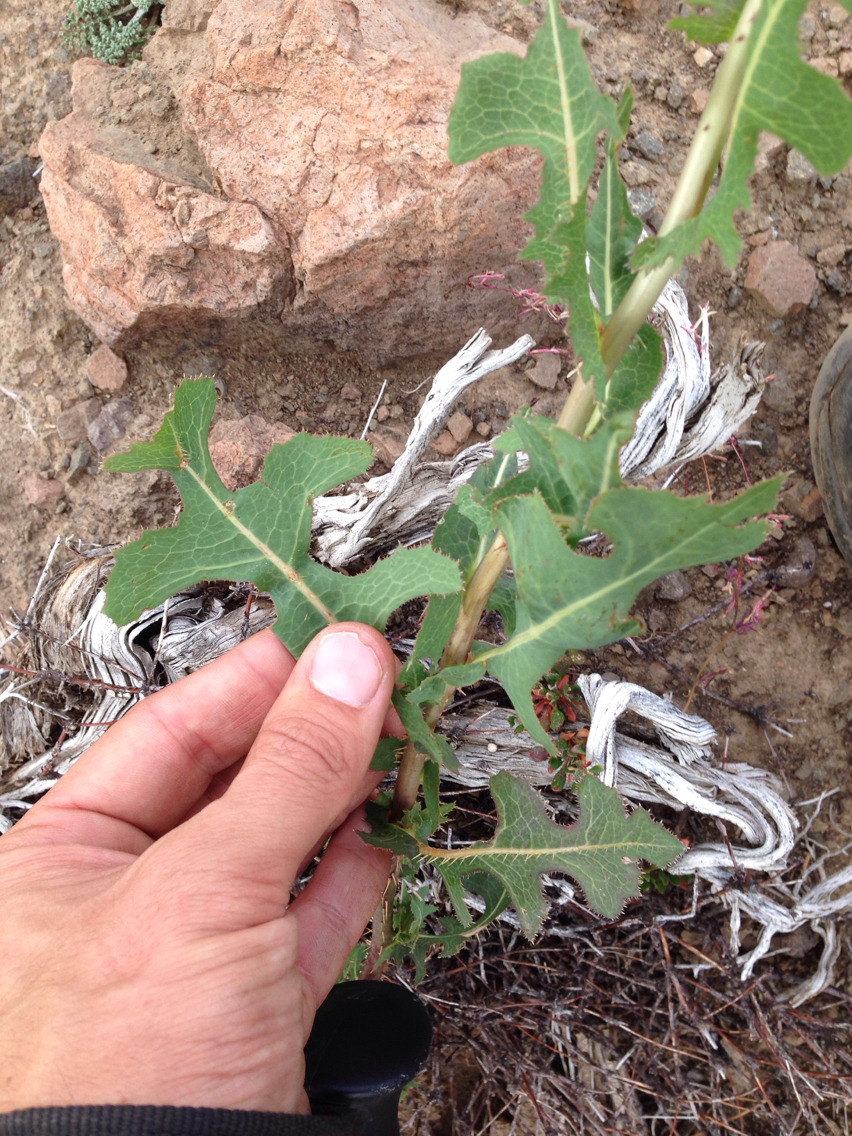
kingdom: Plantae
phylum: Tracheophyta
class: Magnoliopsida
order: Asterales
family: Asteraceae
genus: Lactuca
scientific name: Lactuca serriola
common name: Prickly lettuce
